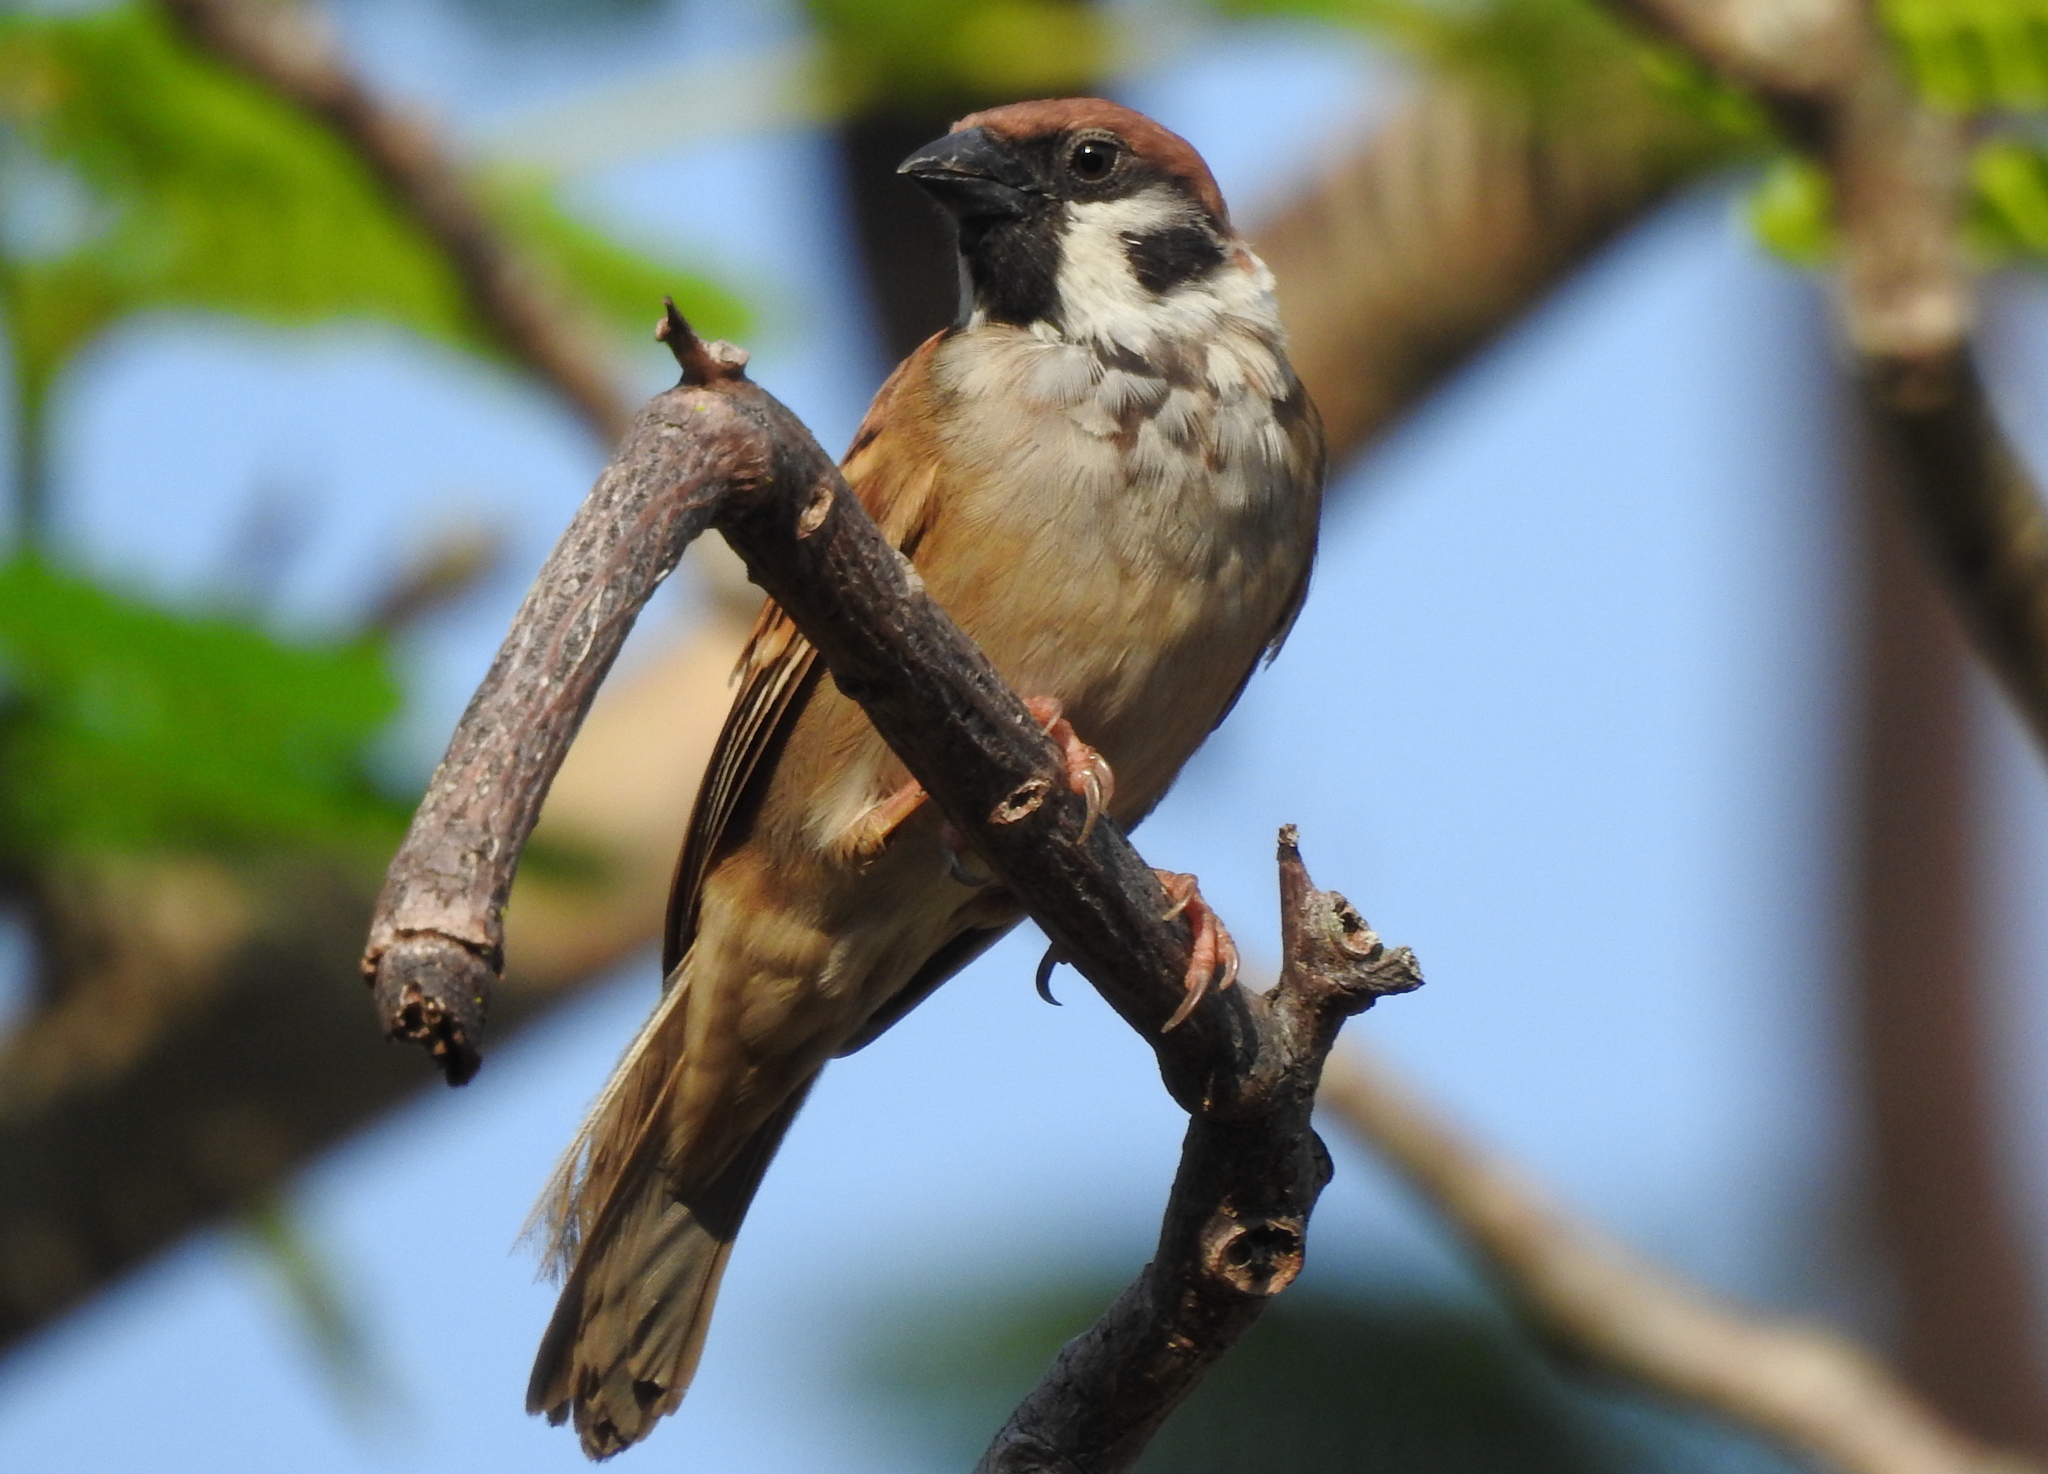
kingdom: Animalia
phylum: Chordata
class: Aves
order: Passeriformes
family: Passeridae
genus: Passer
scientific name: Passer montanus
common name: Eurasian tree sparrow
